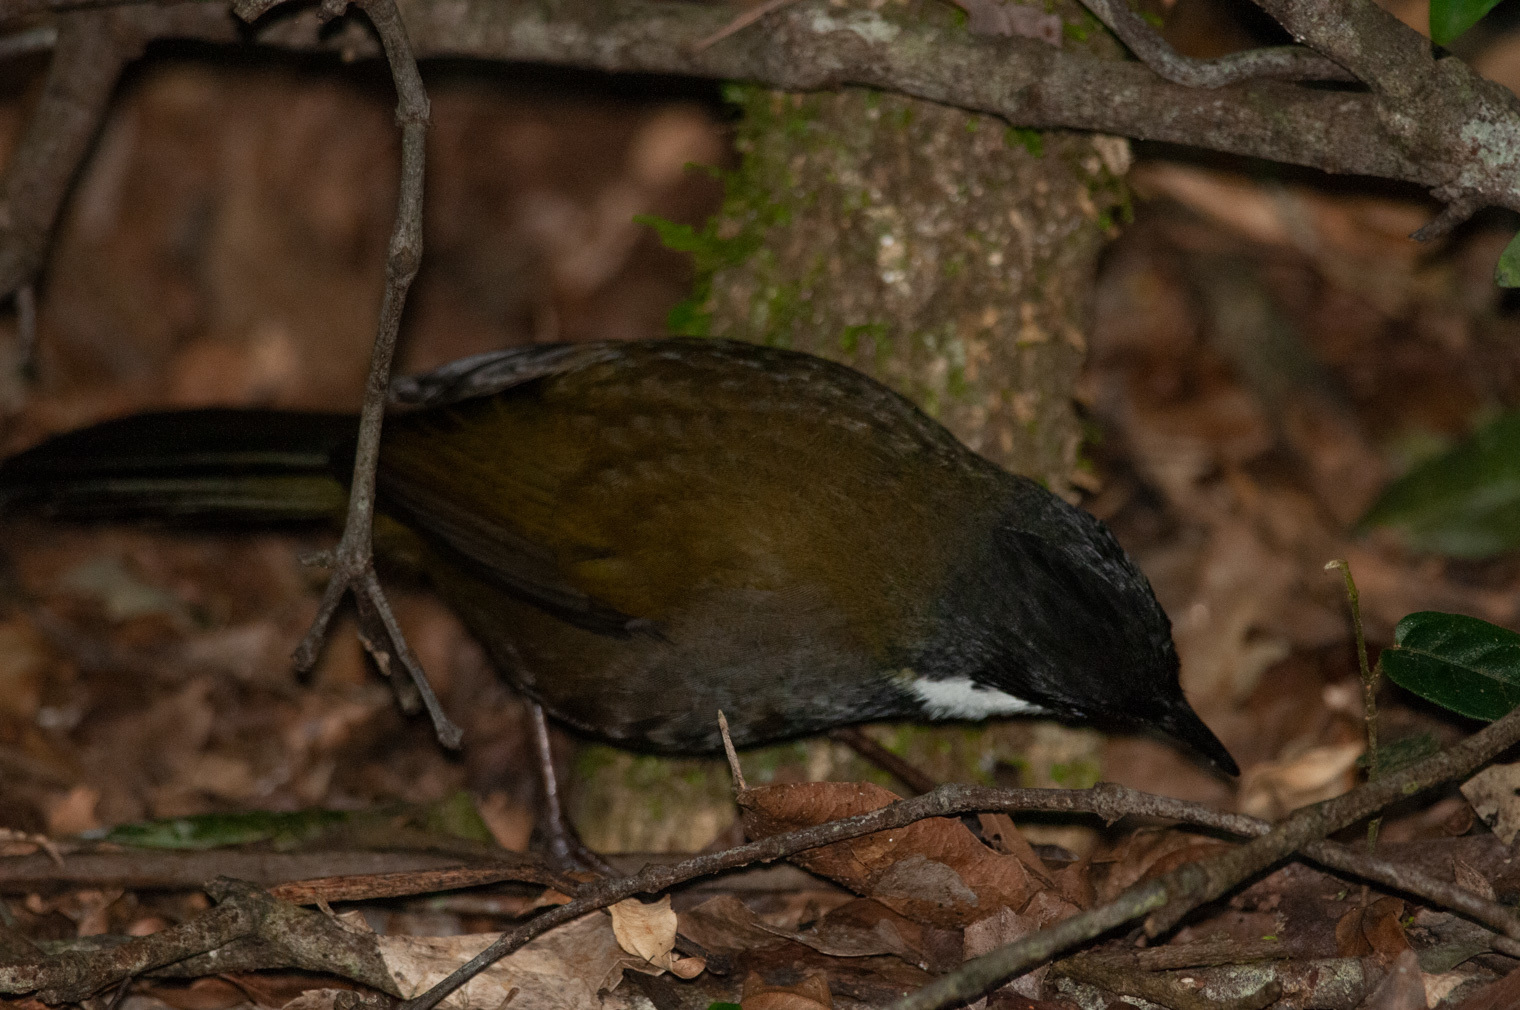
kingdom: Animalia
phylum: Chordata
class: Aves
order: Passeriformes
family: Psophodidae
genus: Psophodes
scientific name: Psophodes olivaceus
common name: Eastern whipbird
